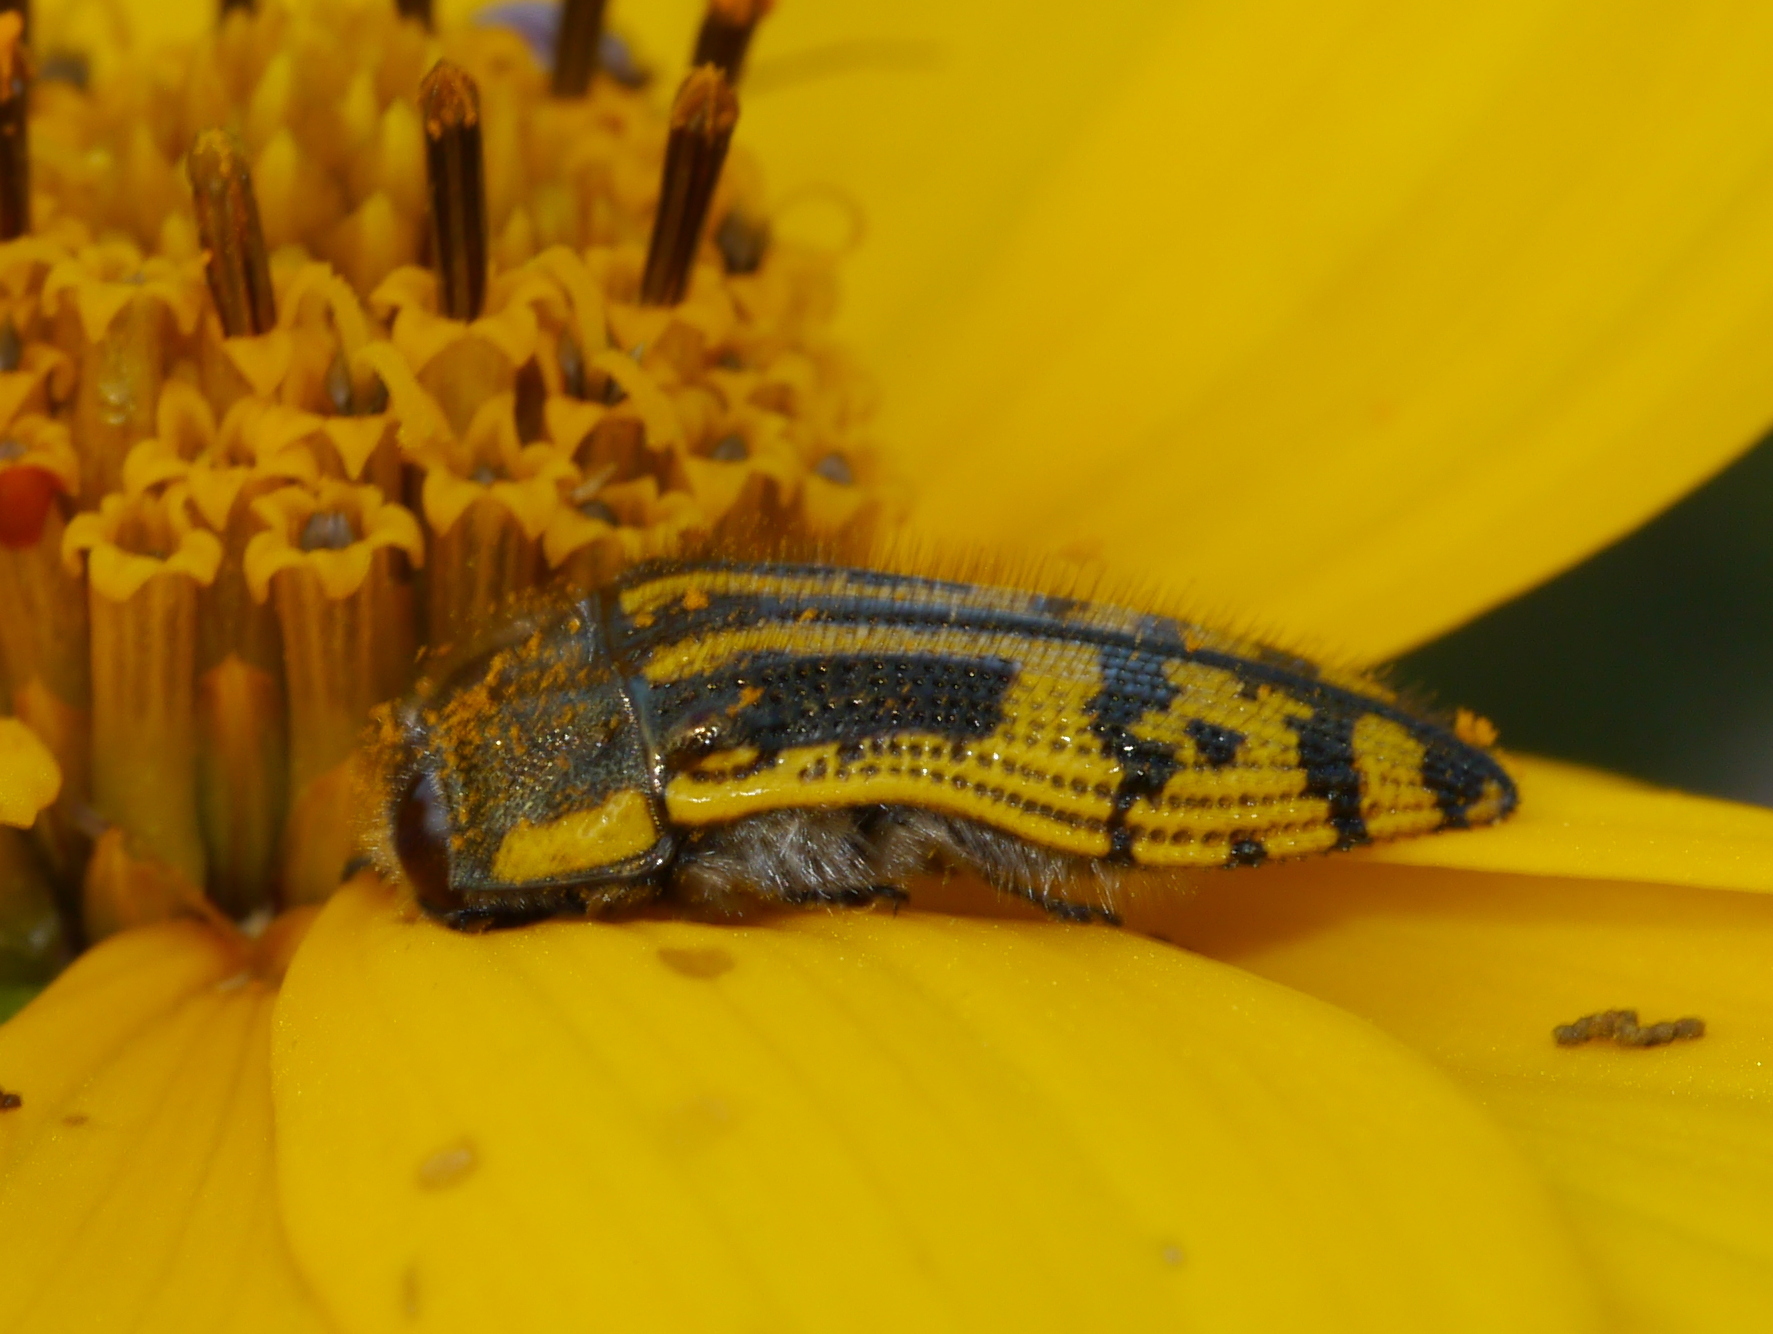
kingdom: Animalia
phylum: Arthropoda
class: Insecta
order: Coleoptera
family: Buprestidae
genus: Acmaeodera
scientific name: Acmaeodera amplicollis
